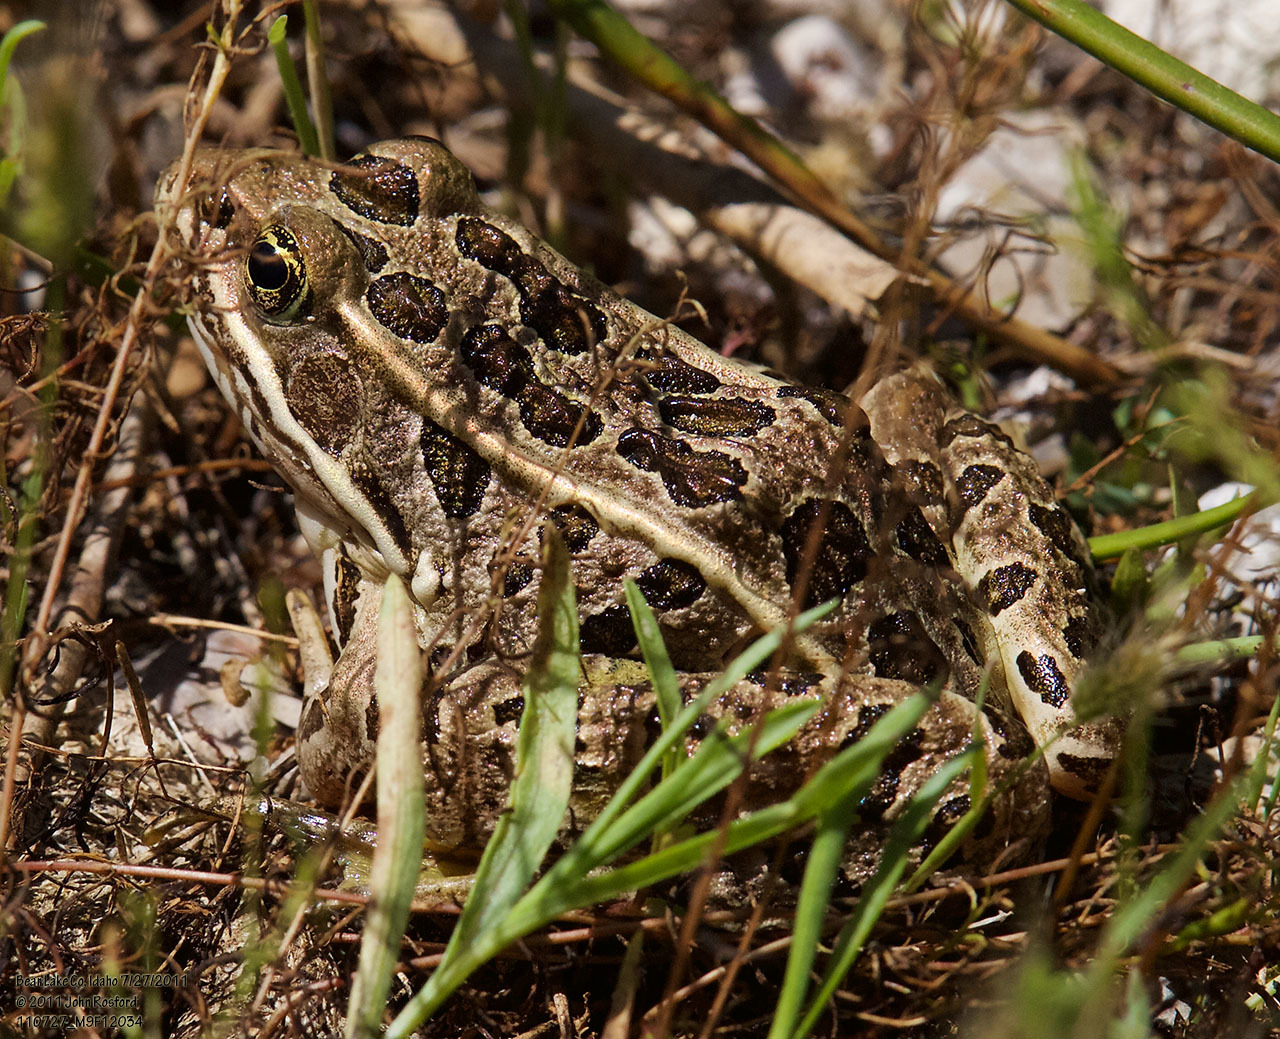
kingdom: Animalia
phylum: Chordata
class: Amphibia
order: Anura
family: Ranidae
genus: Lithobates
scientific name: Lithobates pipiens
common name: Northern leopard frog
